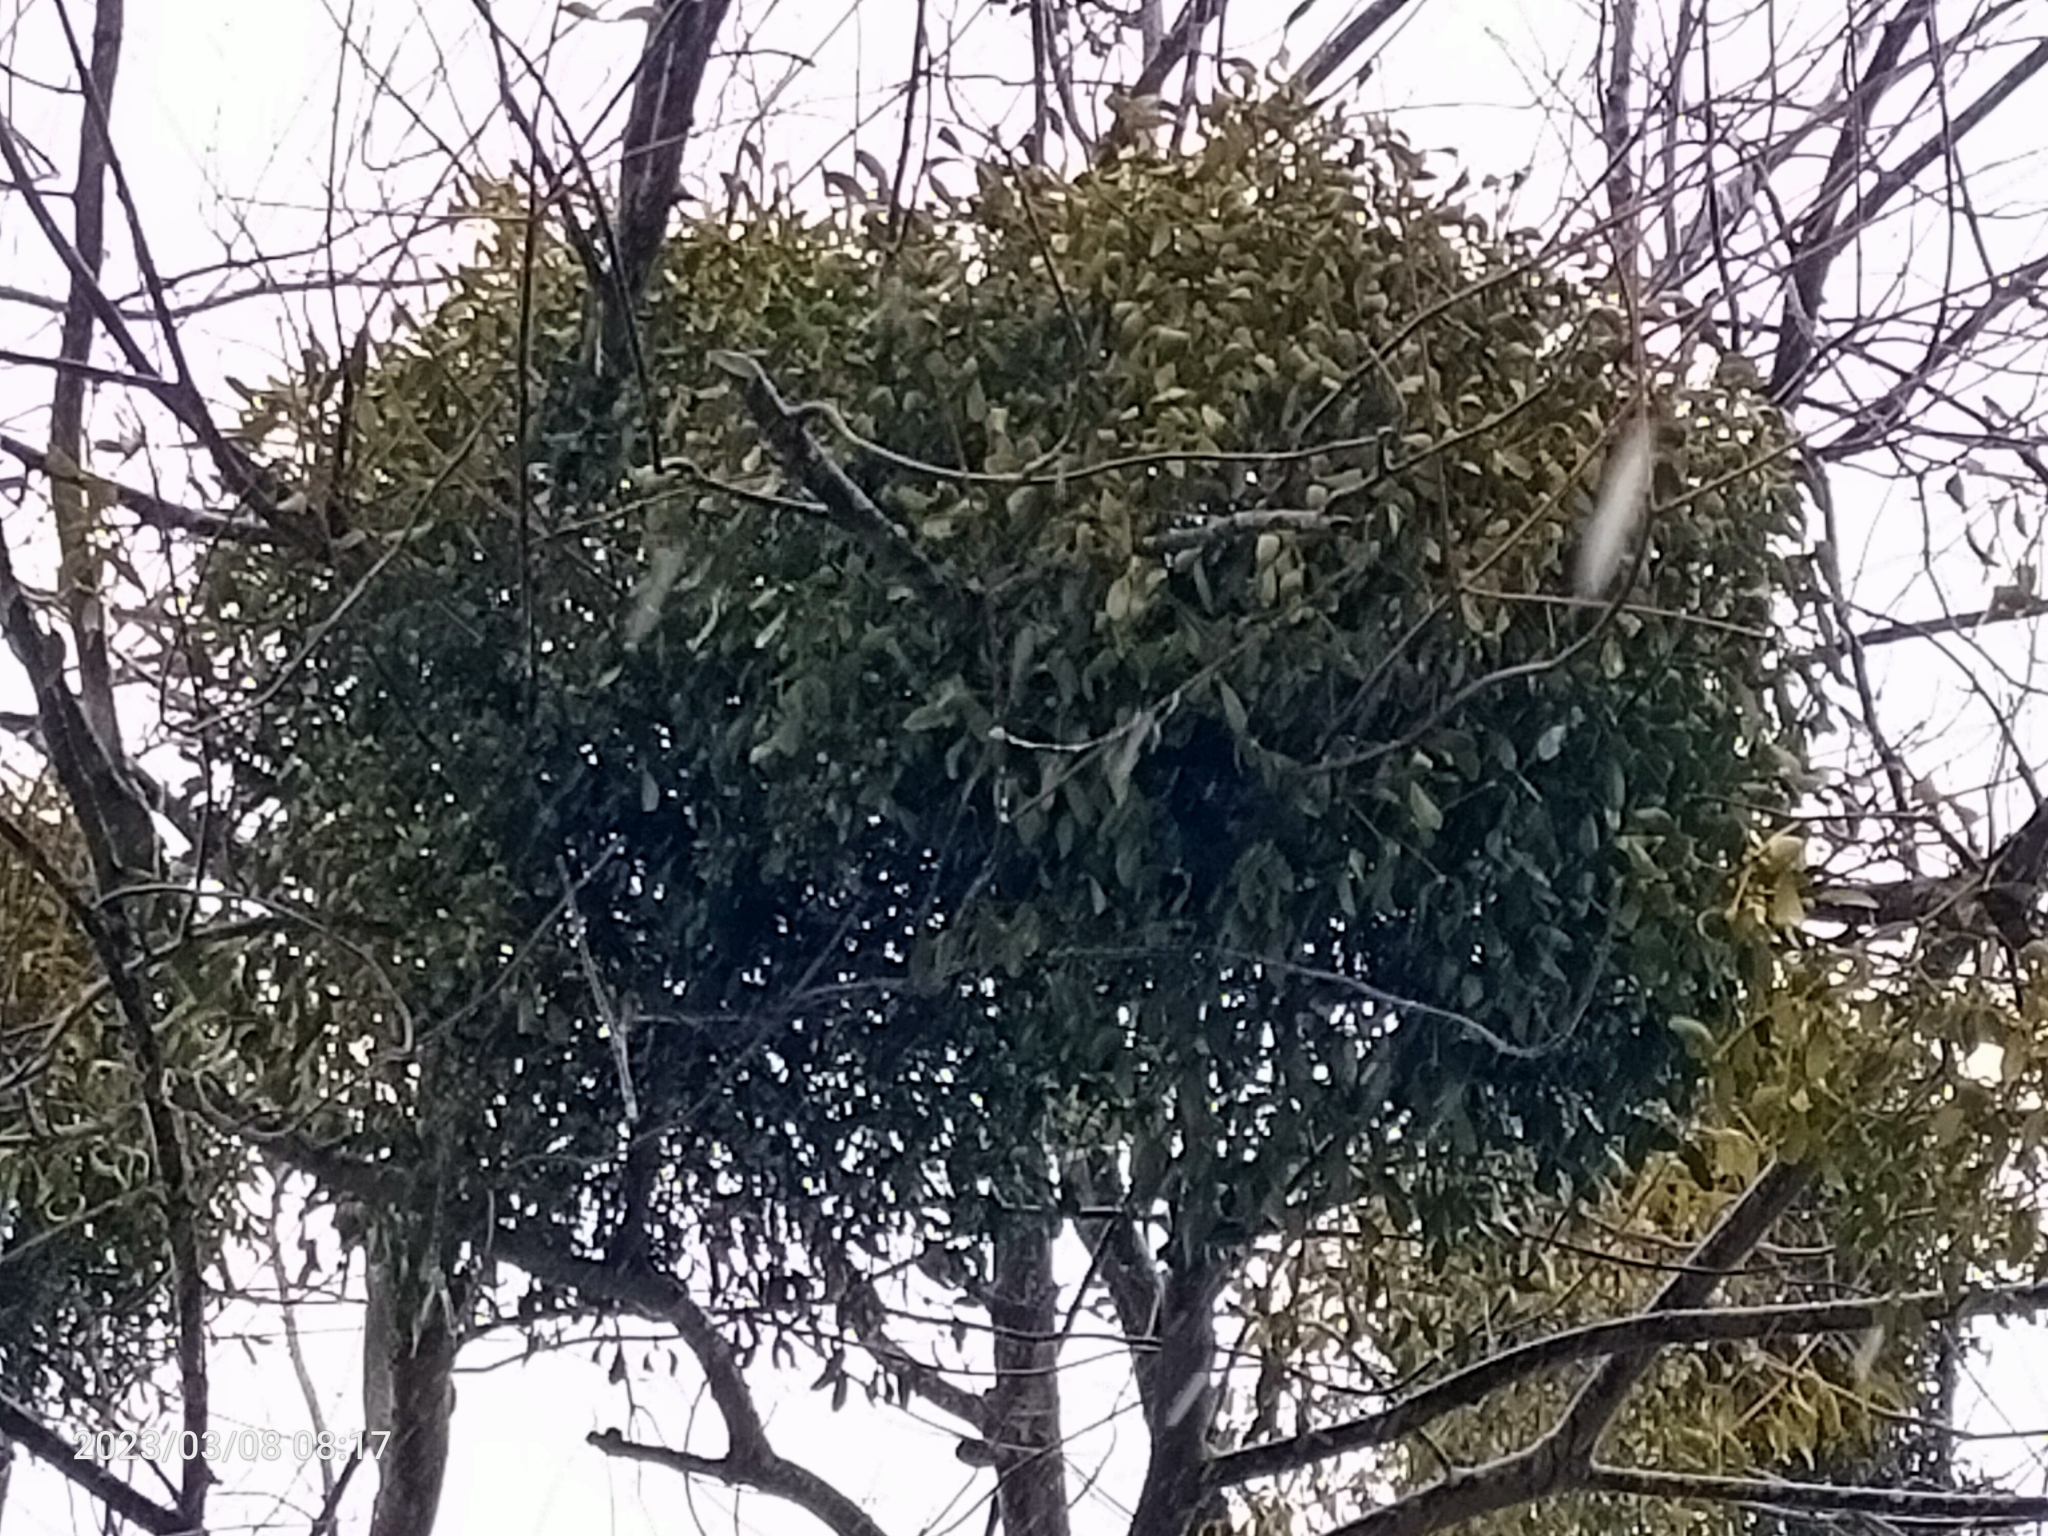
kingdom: Plantae
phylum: Tracheophyta
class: Magnoliopsida
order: Santalales
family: Viscaceae
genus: Viscum
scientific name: Viscum album
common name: Mistletoe
